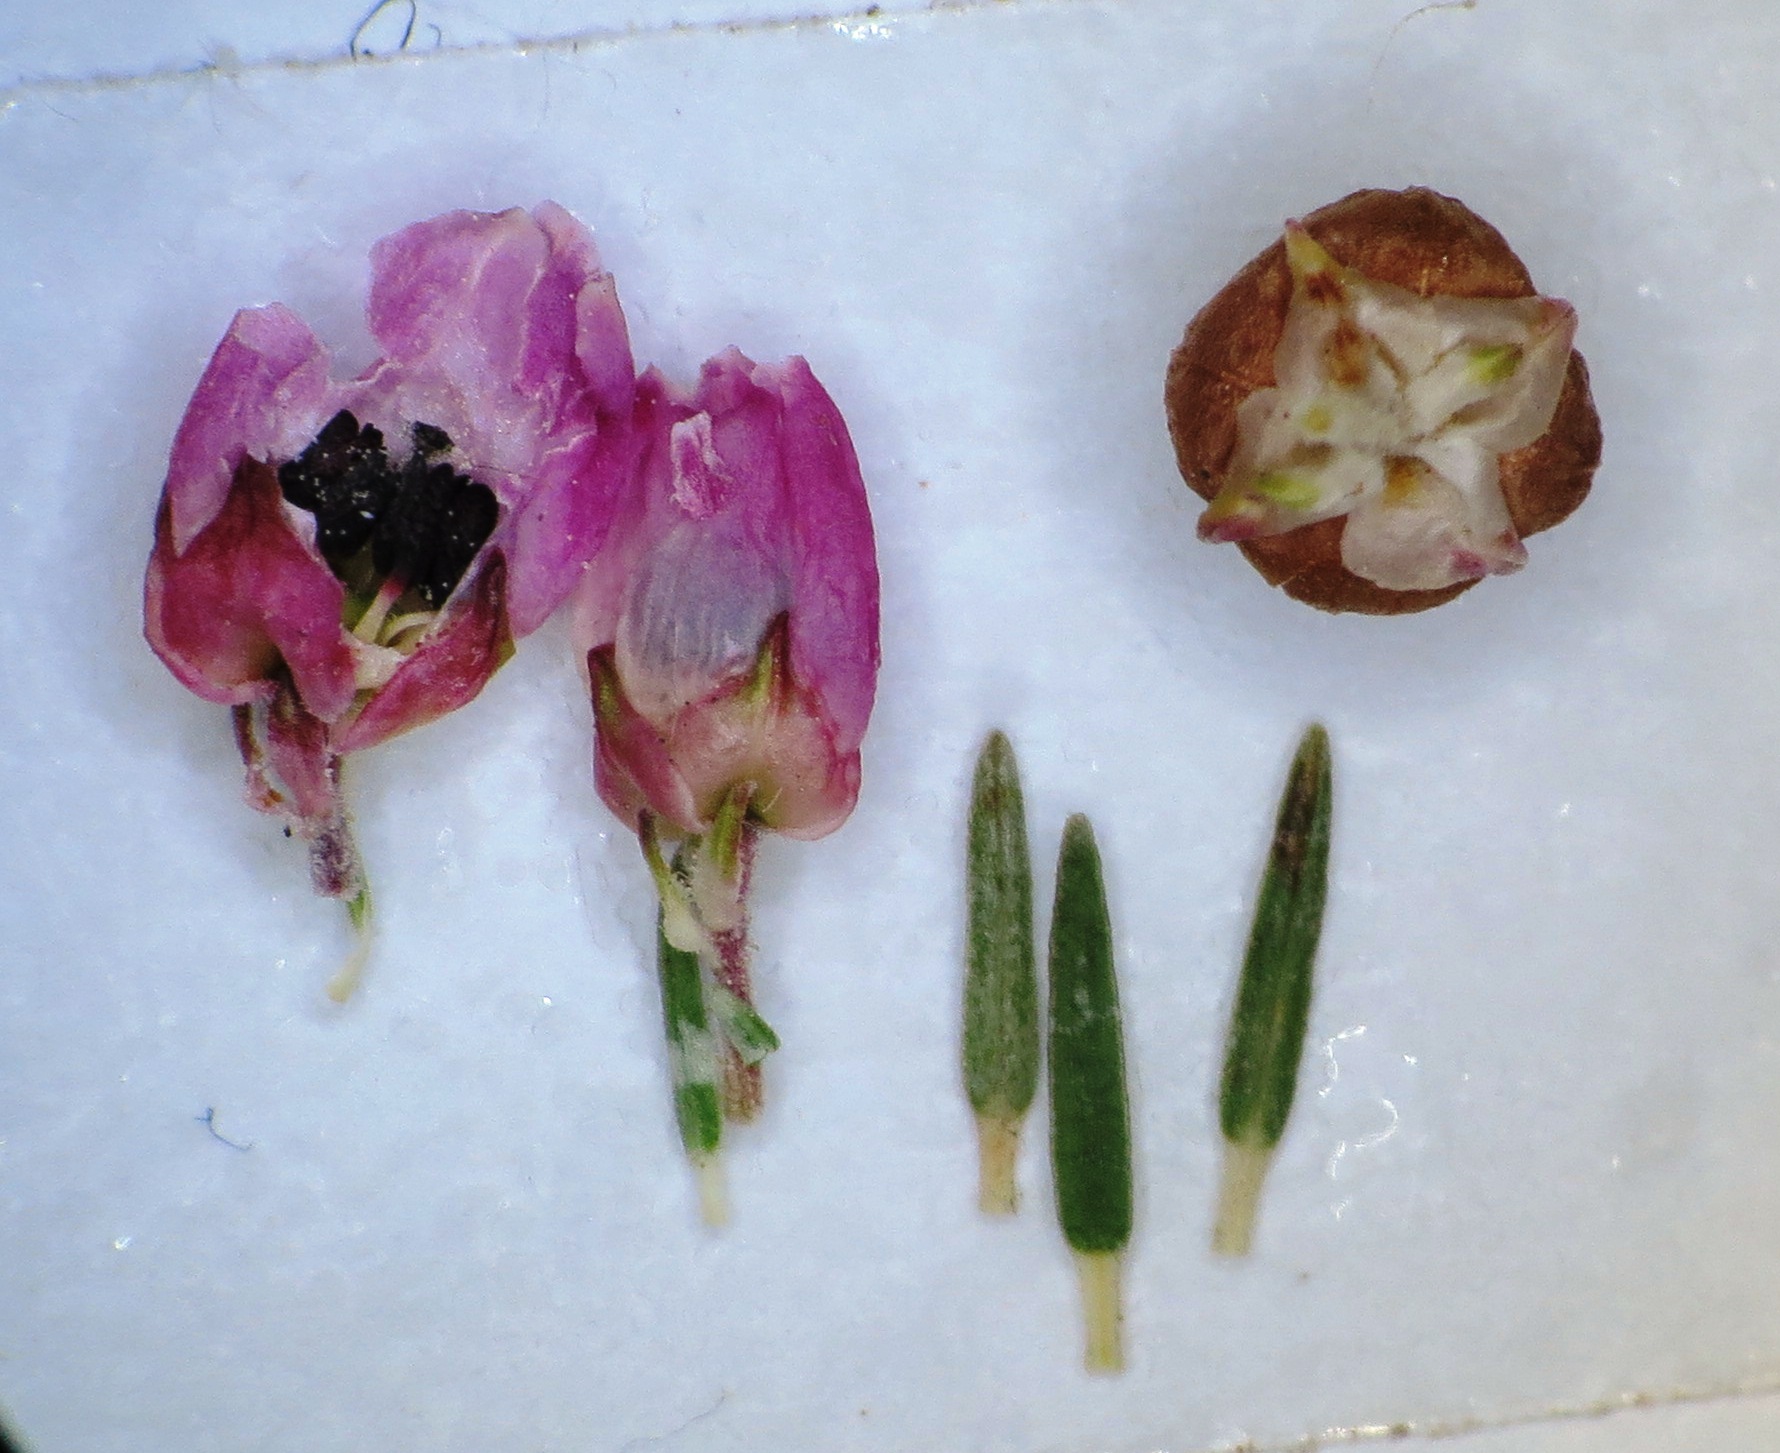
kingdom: Plantae
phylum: Tracheophyta
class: Magnoliopsida
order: Ericales
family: Ericaceae
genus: Erica
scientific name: Erica condensata
